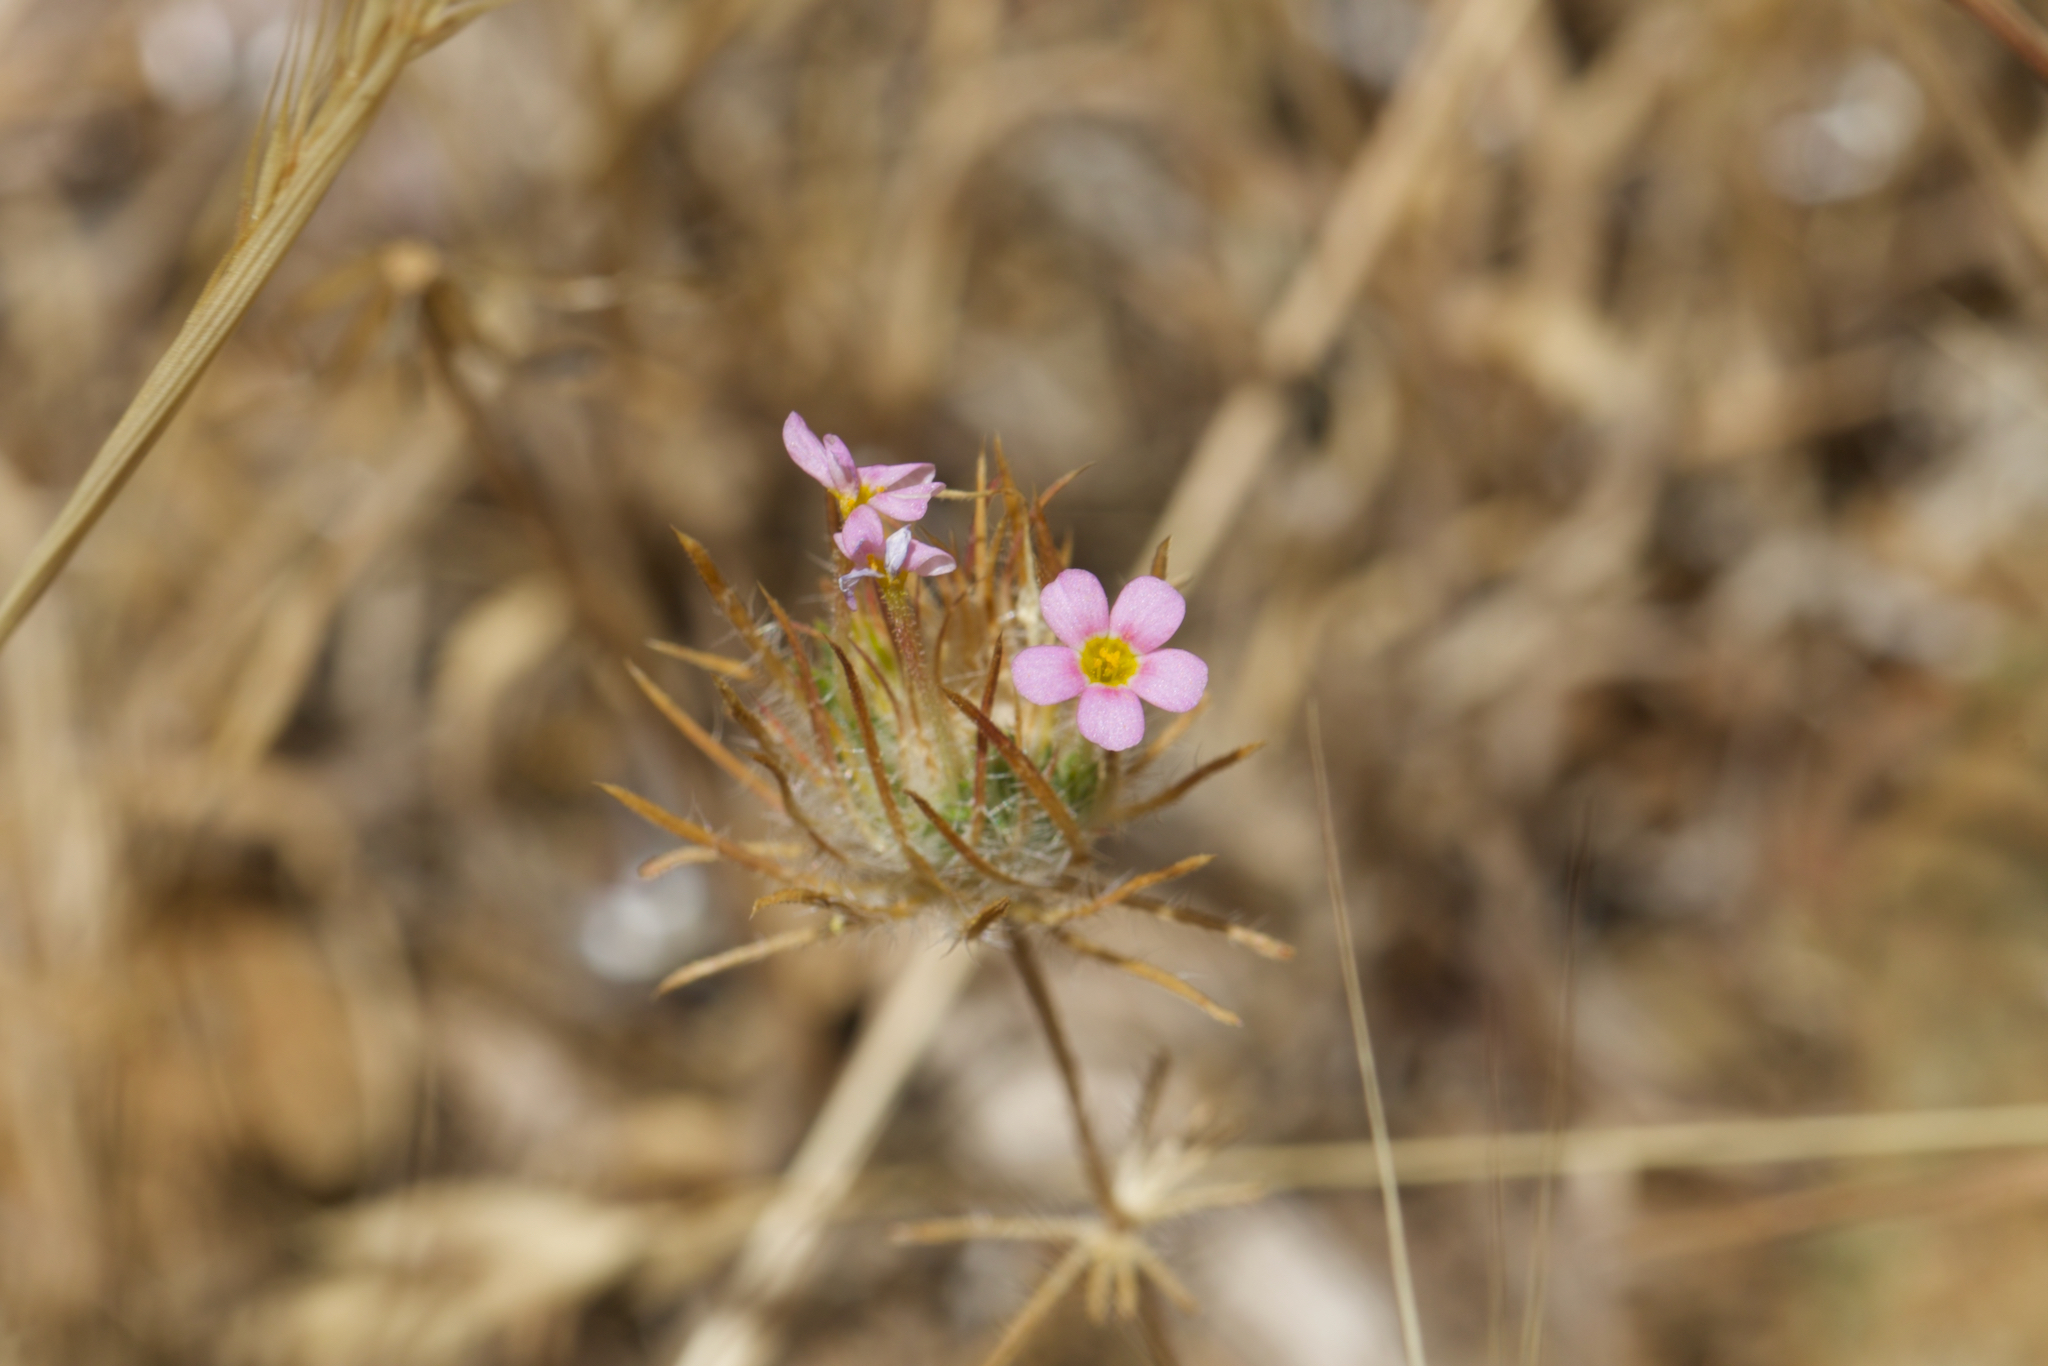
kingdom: Plantae
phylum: Tracheophyta
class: Magnoliopsida
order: Ericales
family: Polemoniaceae
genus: Leptosiphon
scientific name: Leptosiphon ciliatus
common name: Whiskerbrush
